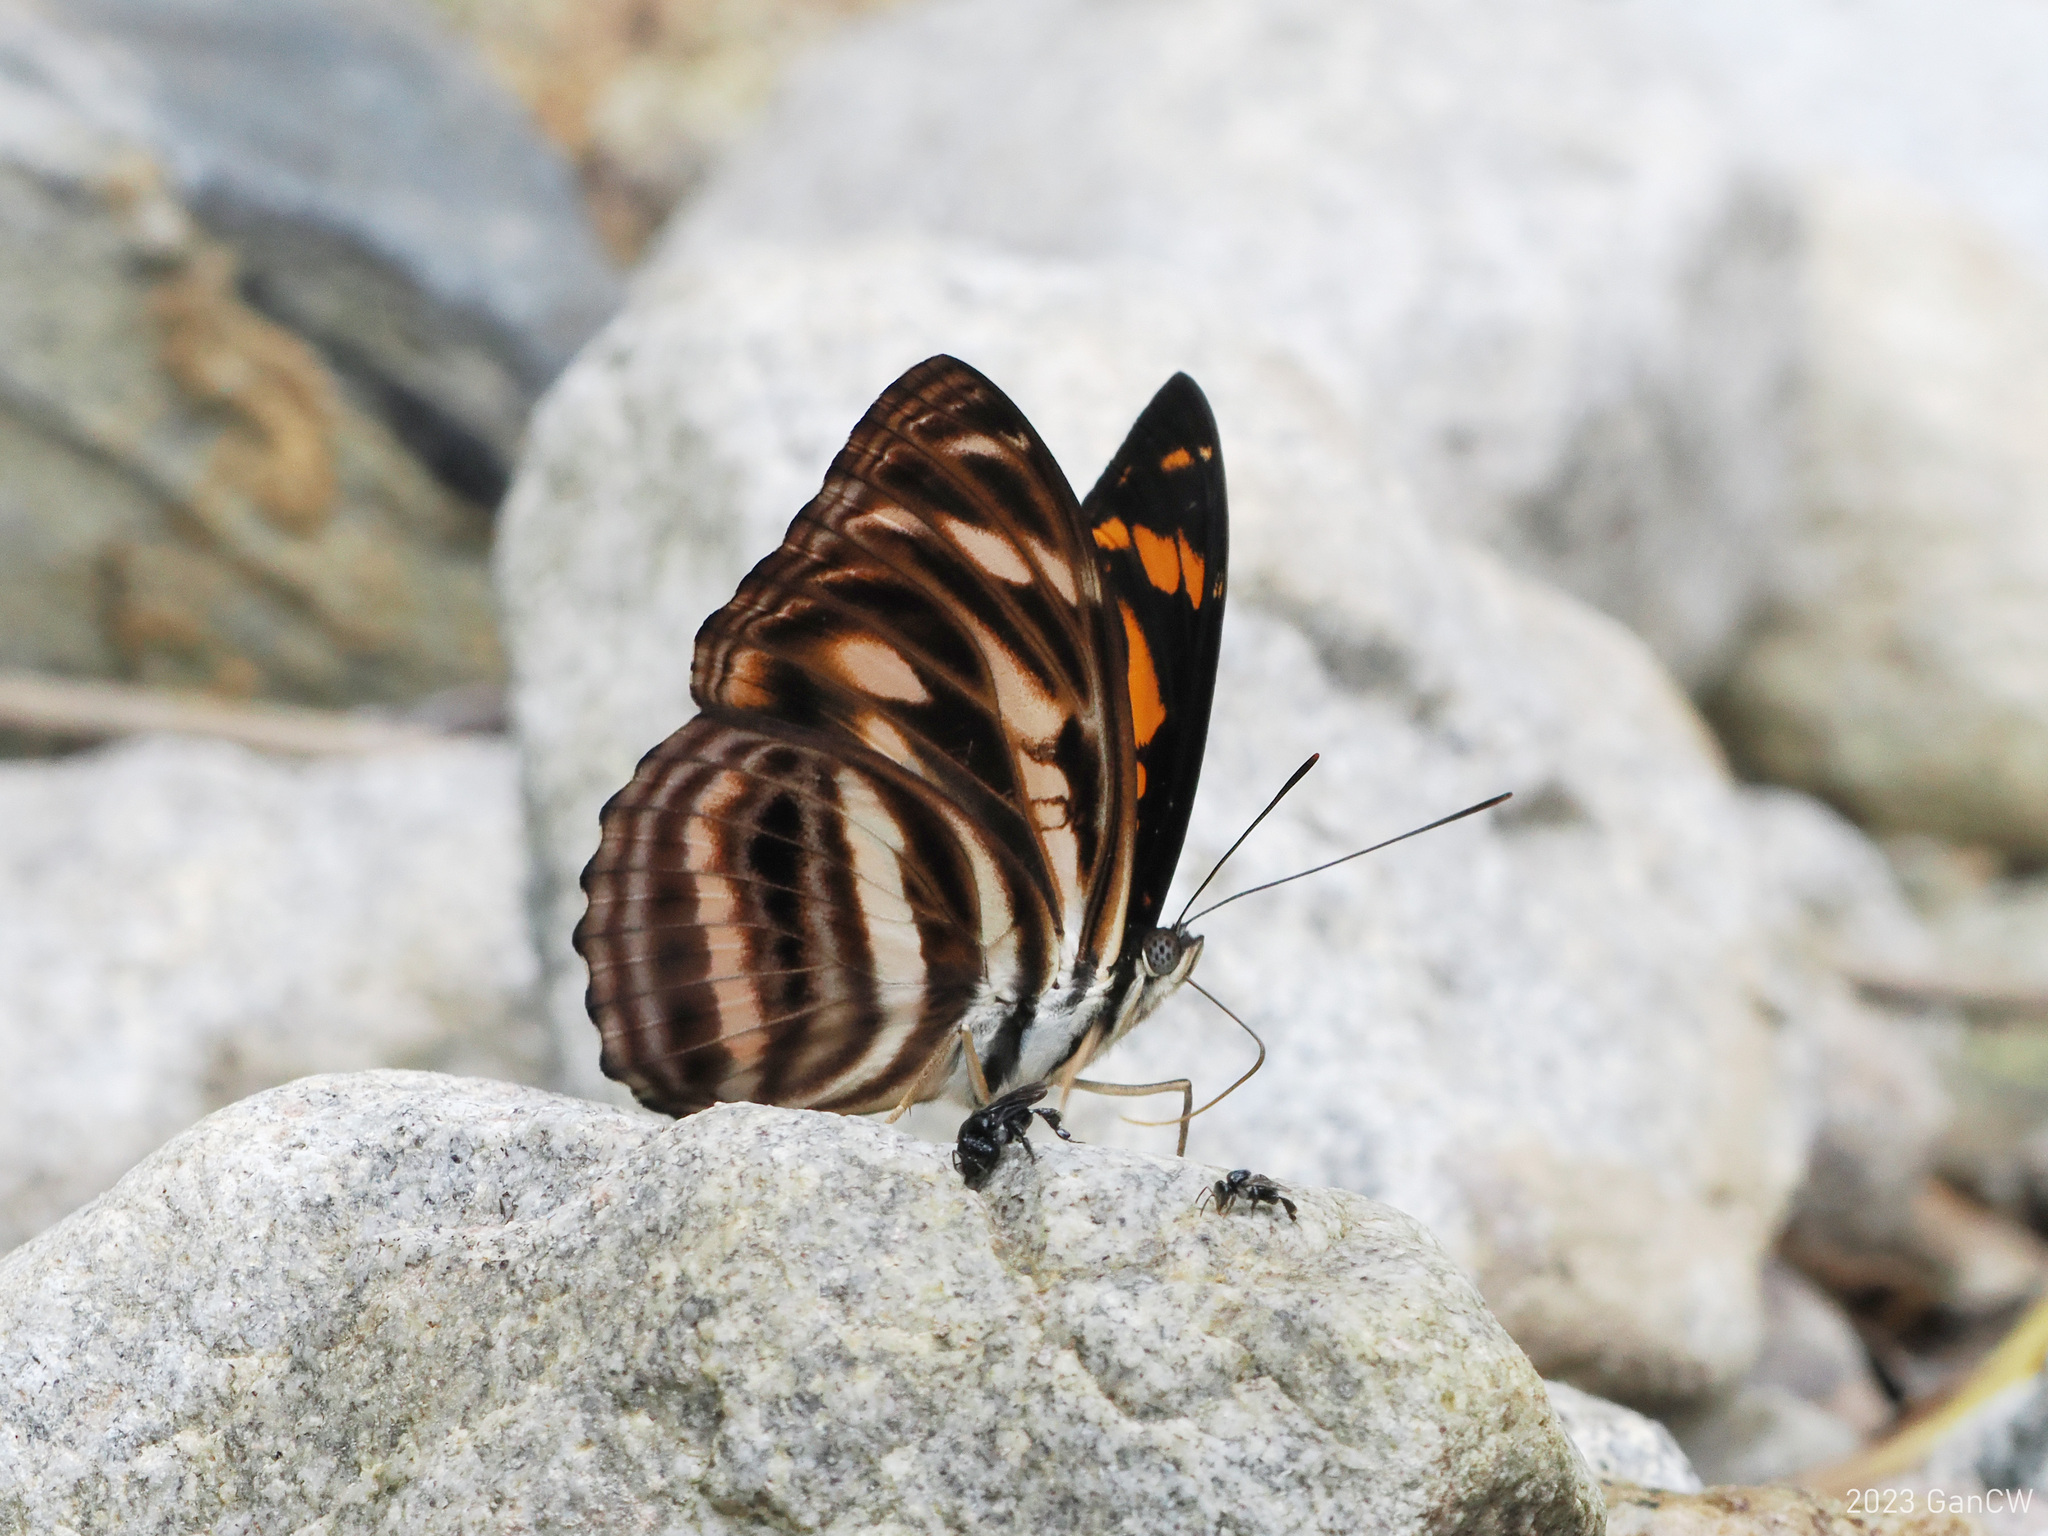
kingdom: Animalia
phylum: Arthropoda
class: Insecta
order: Lepidoptera
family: Nymphalidae
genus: Pantoporia
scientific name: Pantoporia eulimene
